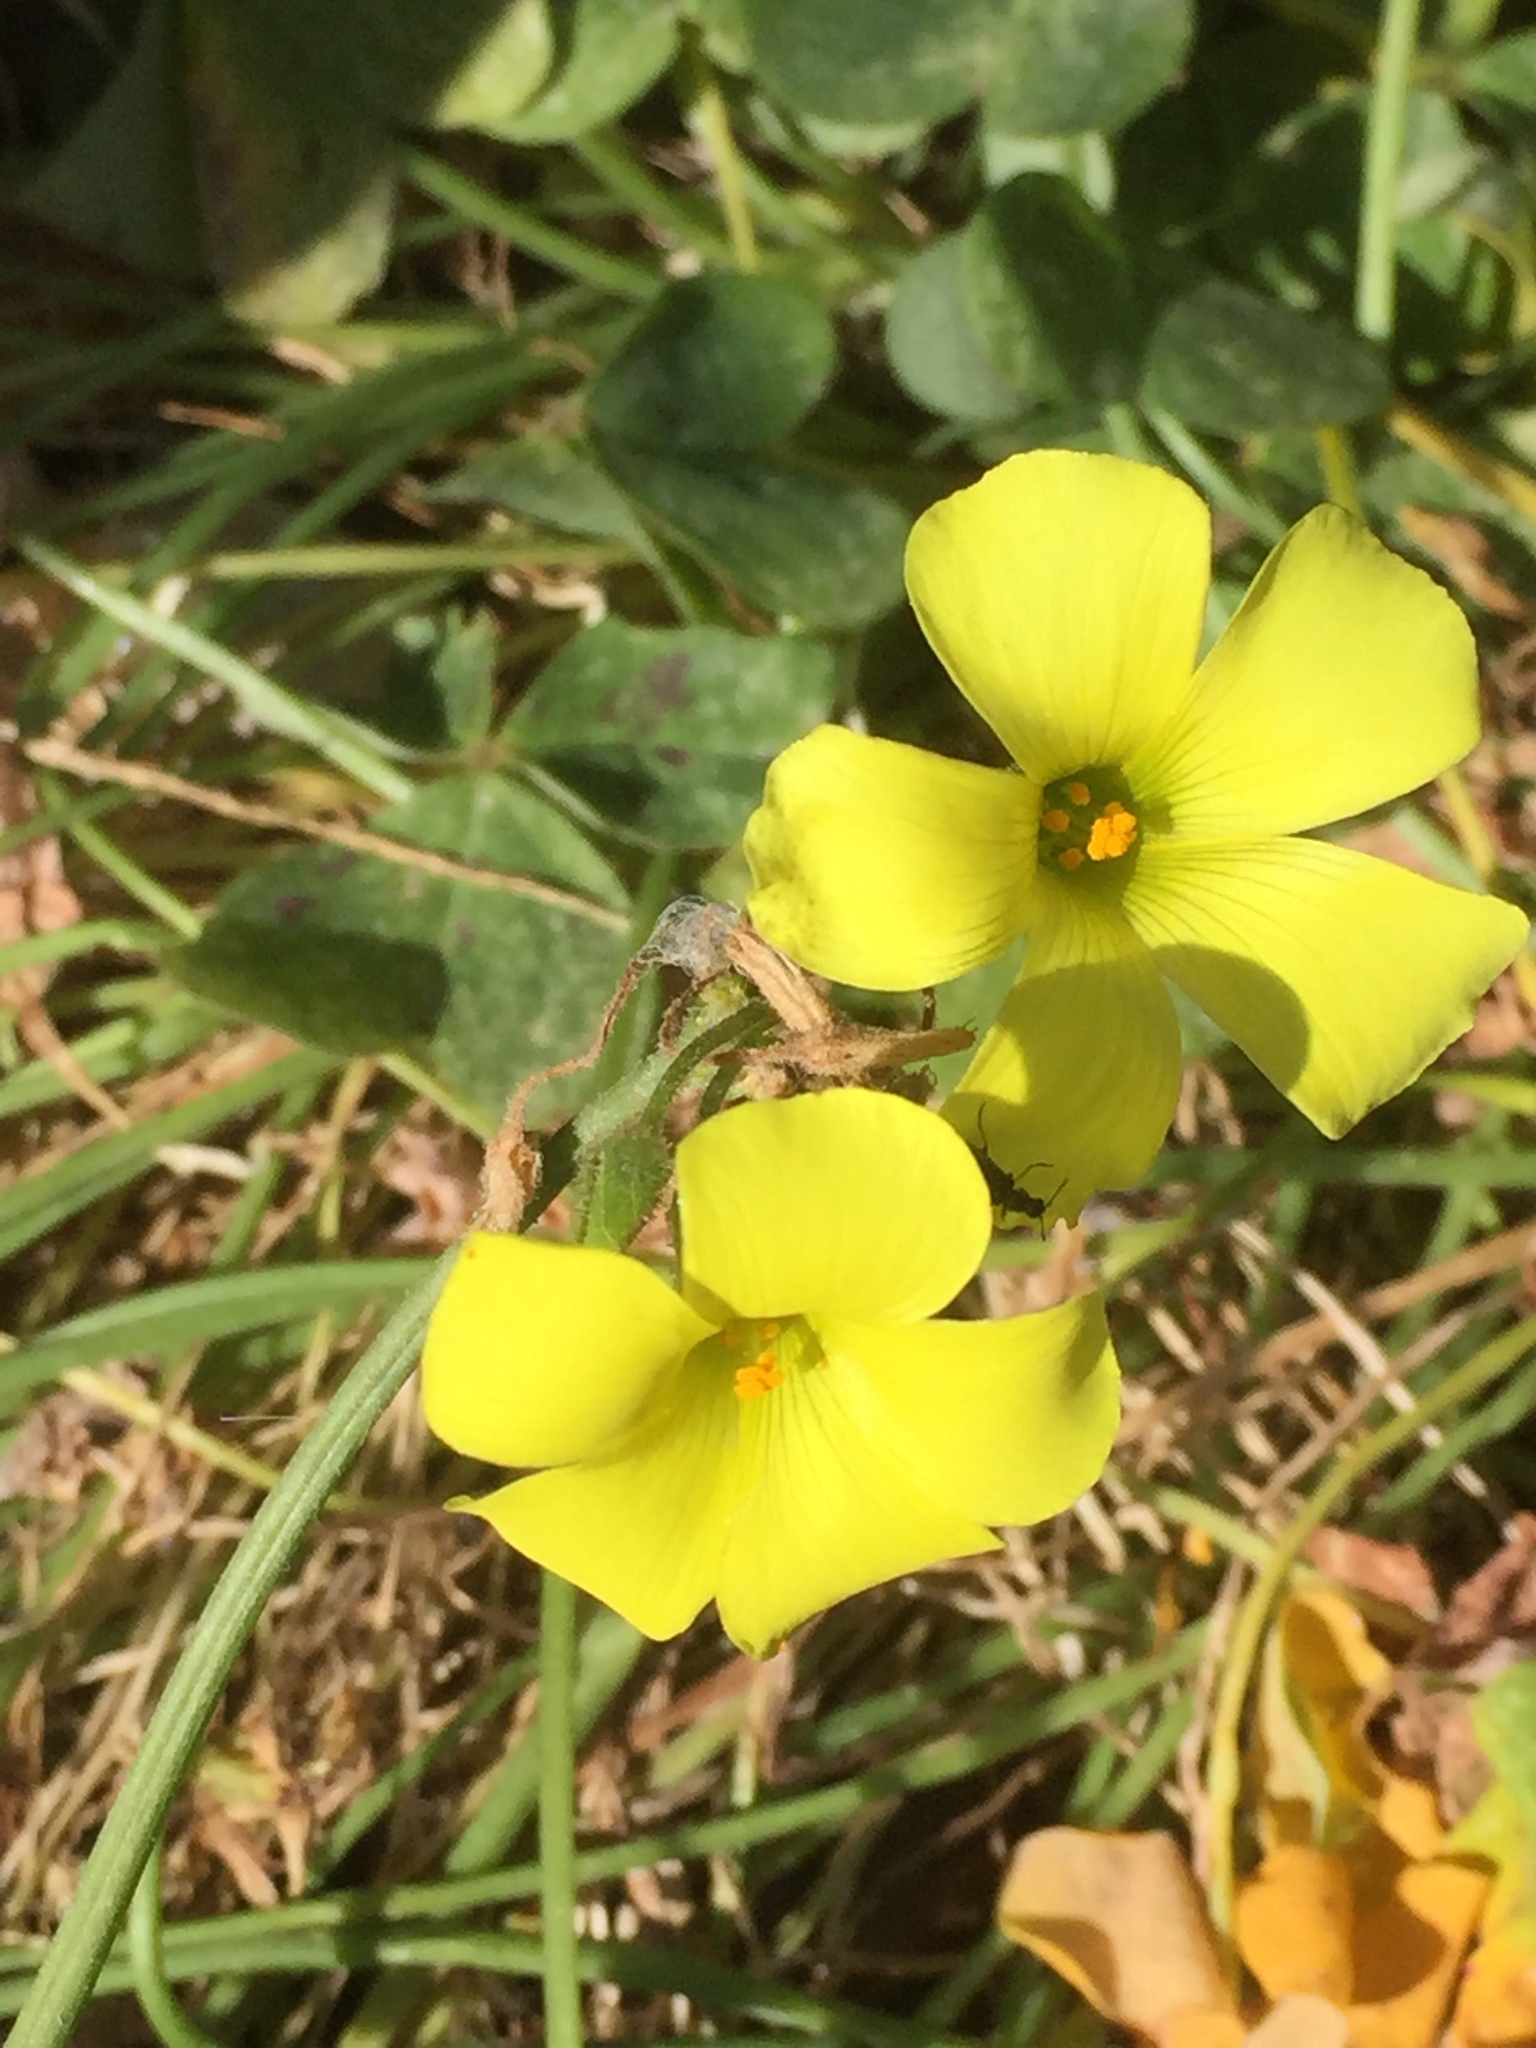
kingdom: Plantae
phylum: Tracheophyta
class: Magnoliopsida
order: Oxalidales
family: Oxalidaceae
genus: Oxalis
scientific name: Oxalis pes-caprae
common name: Bermuda-buttercup
